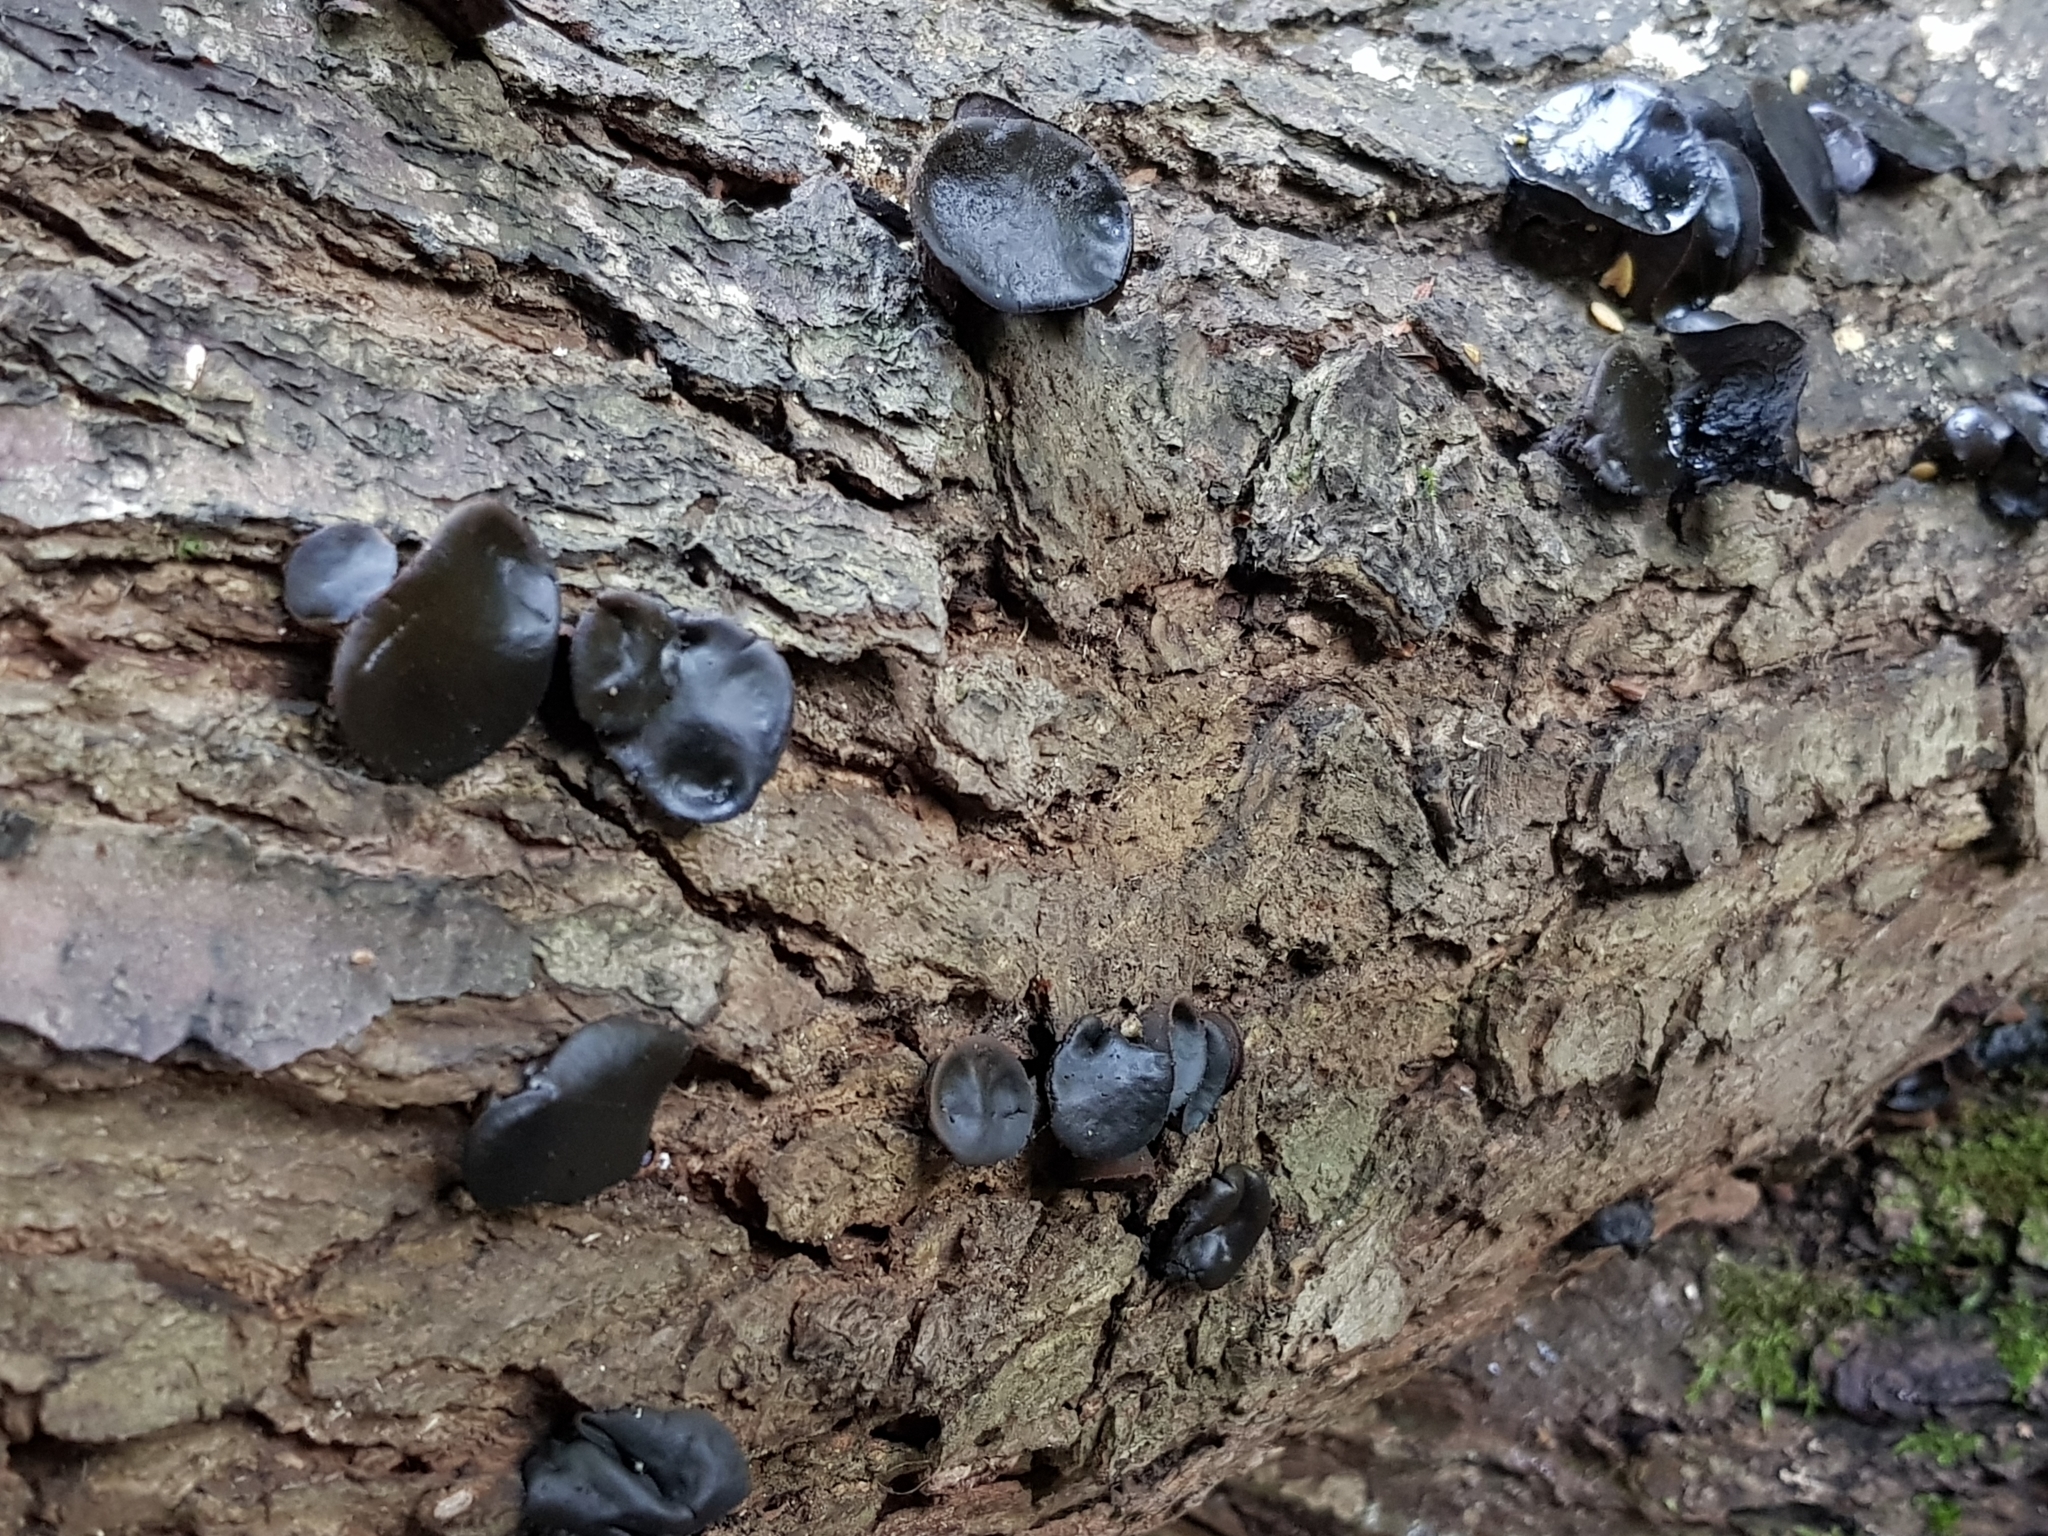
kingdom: Fungi
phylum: Ascomycota
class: Leotiomycetes
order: Phacidiales
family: Phacidiaceae
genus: Bulgaria
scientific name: Bulgaria inquinans
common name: Black bulgar
